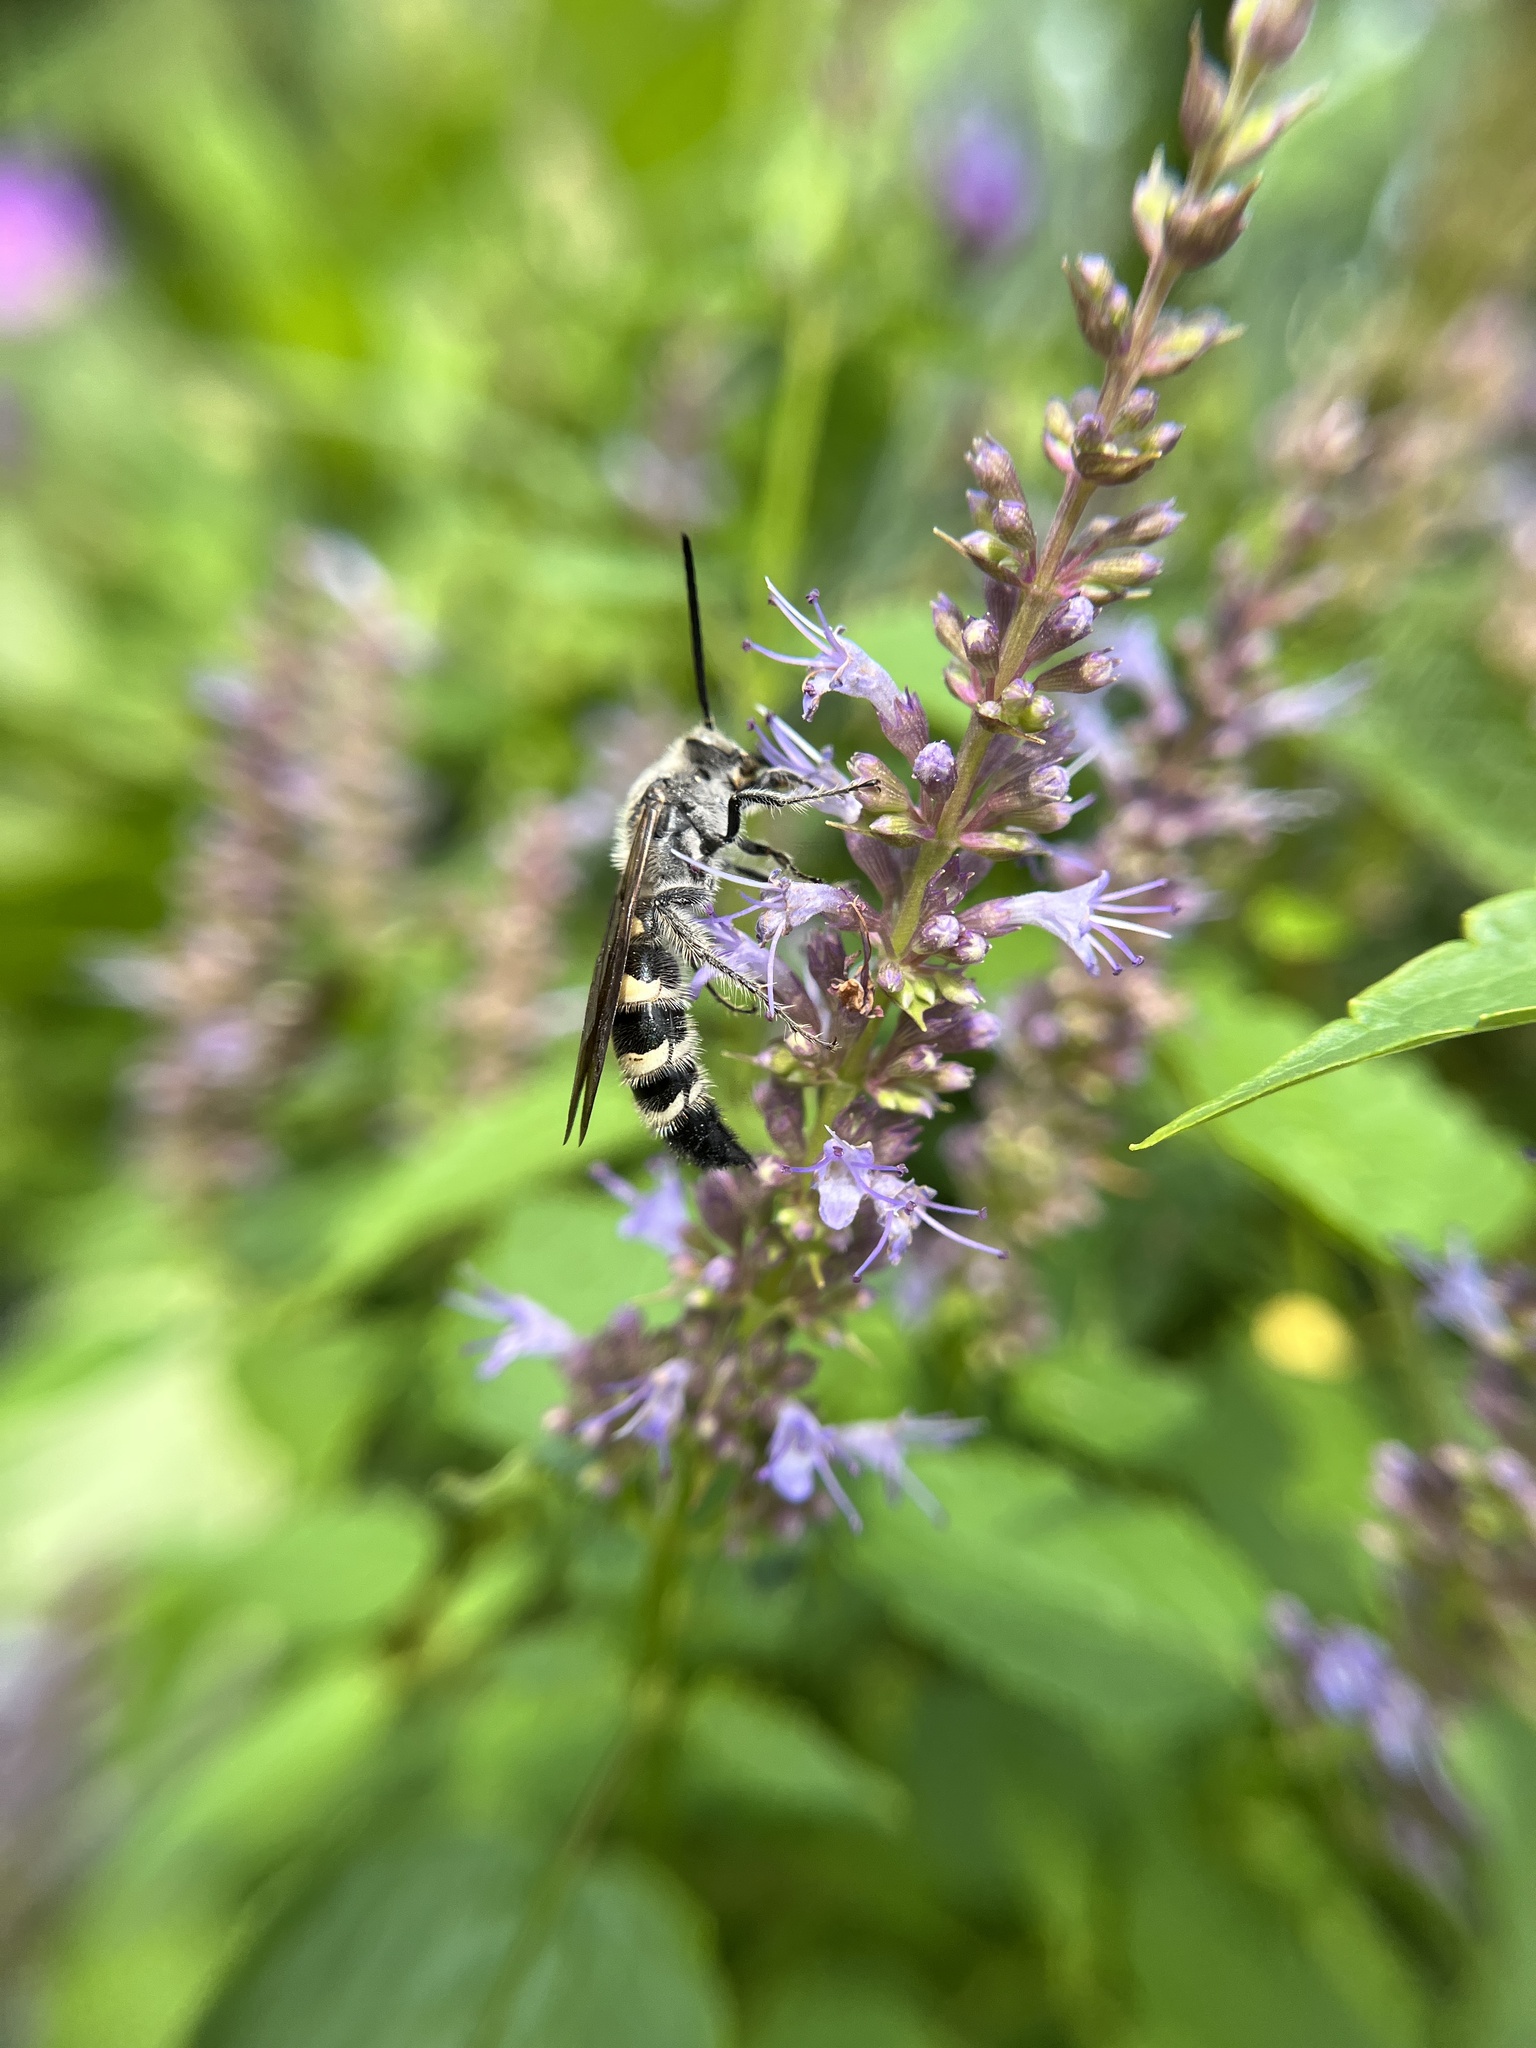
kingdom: Animalia
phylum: Arthropoda
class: Insecta
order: Hymenoptera
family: Scoliidae
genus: Dielis
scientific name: Dielis
